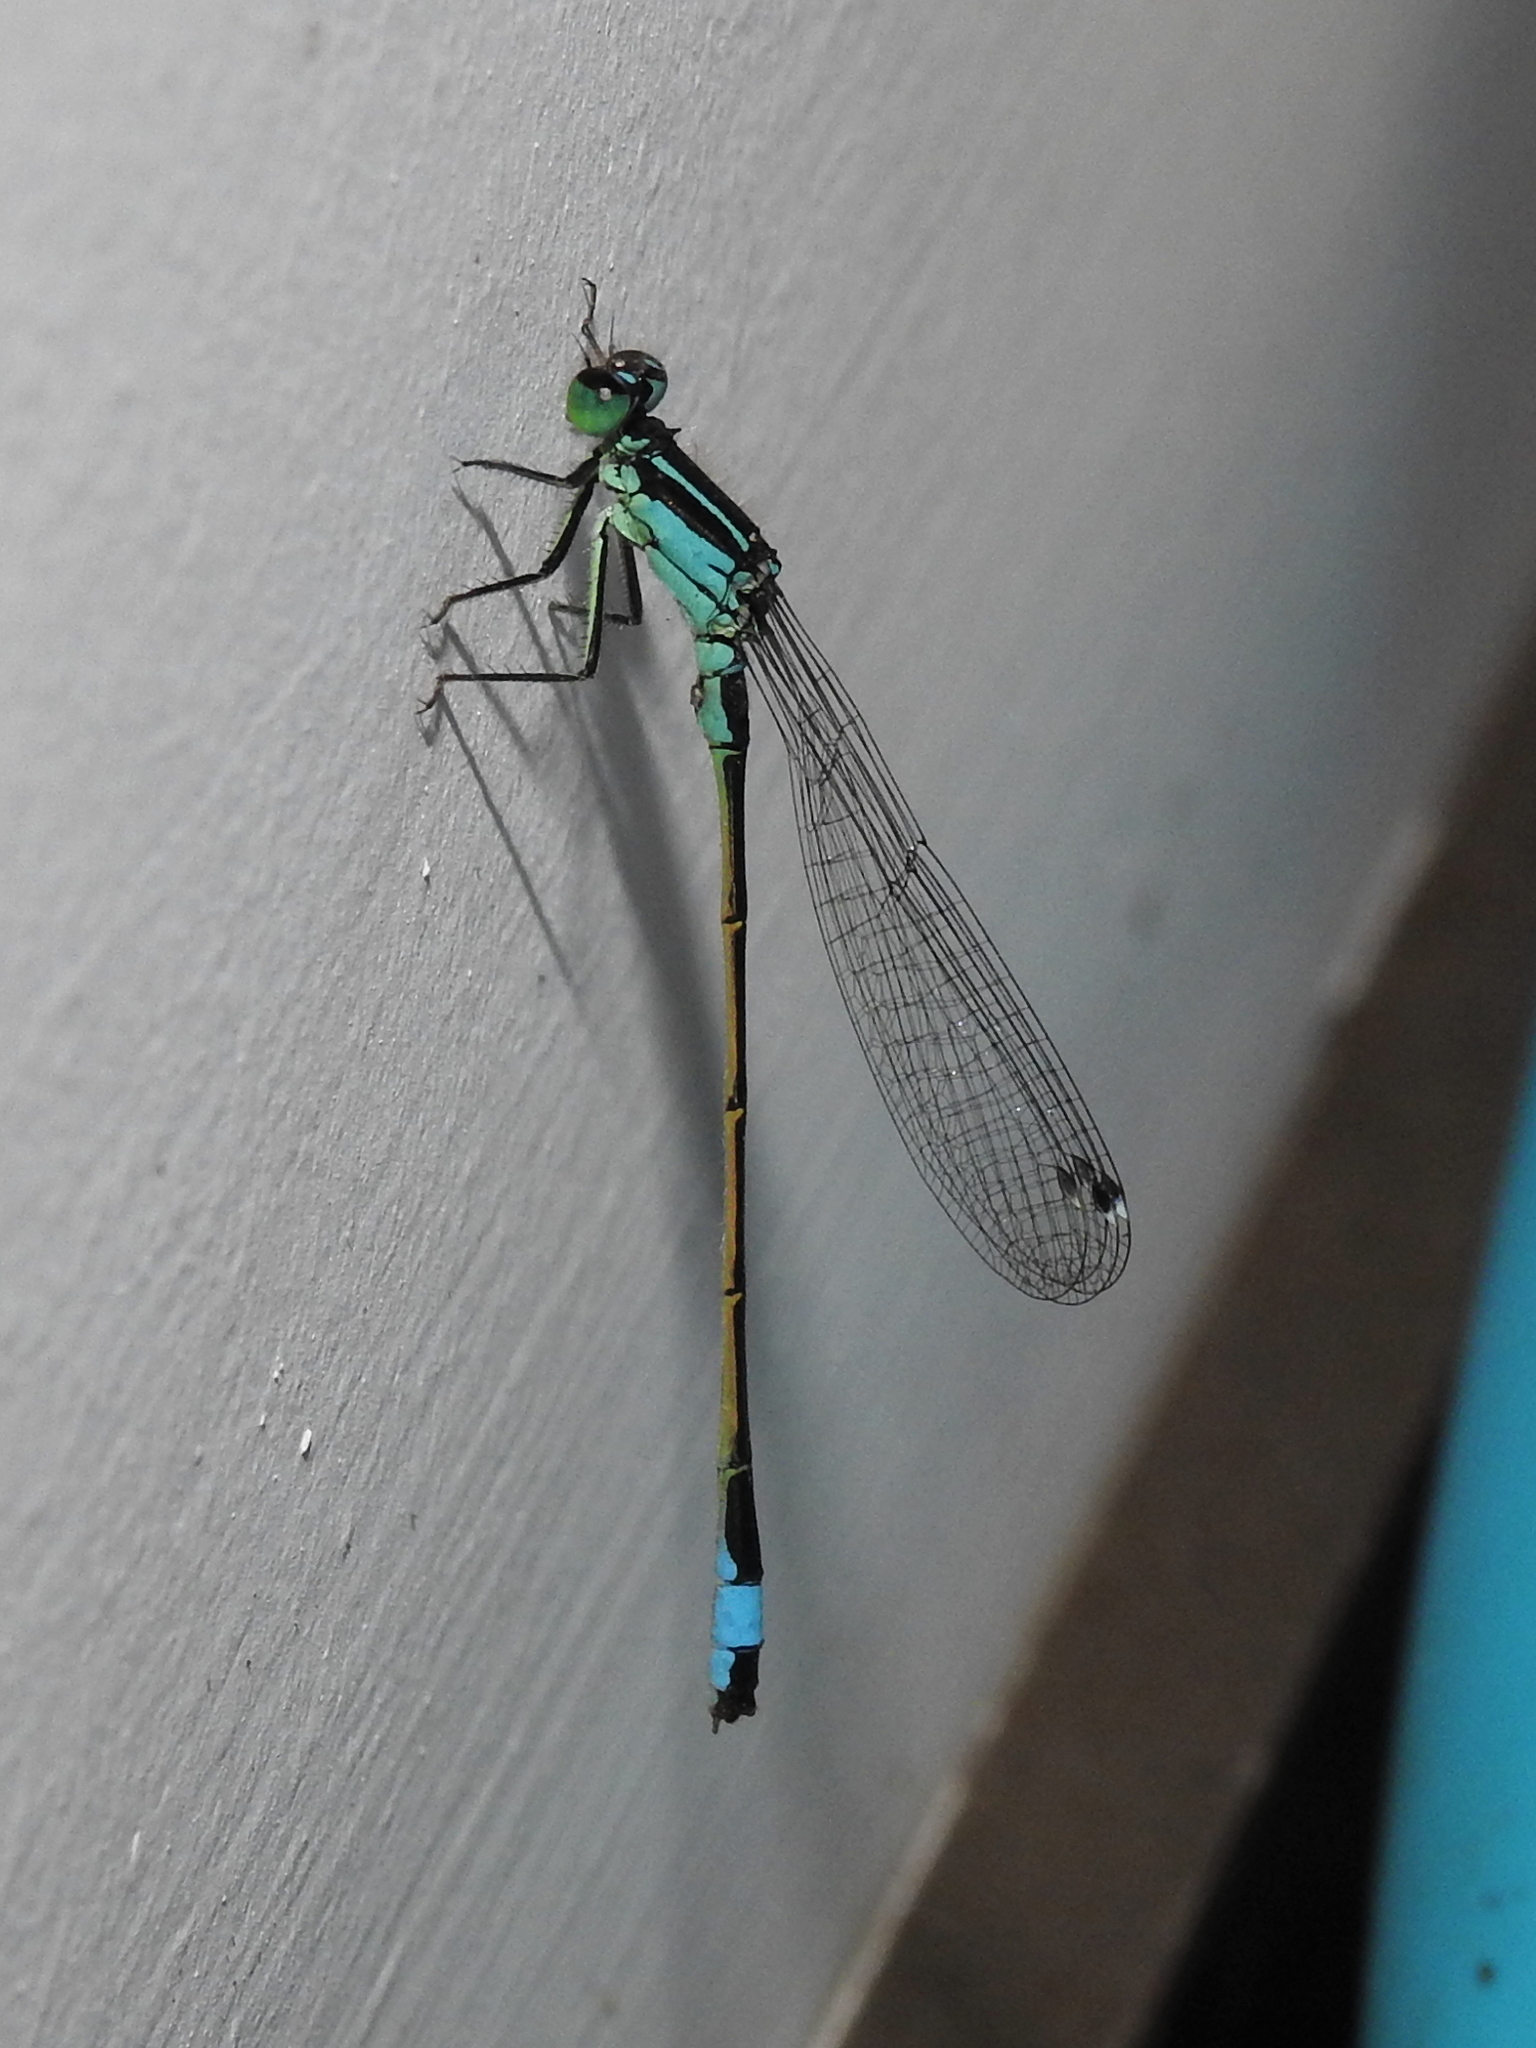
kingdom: Animalia
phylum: Arthropoda
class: Insecta
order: Odonata
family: Coenagrionidae
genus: Ischnura
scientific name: Ischnura elegans
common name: Blue-tailed damselfly
